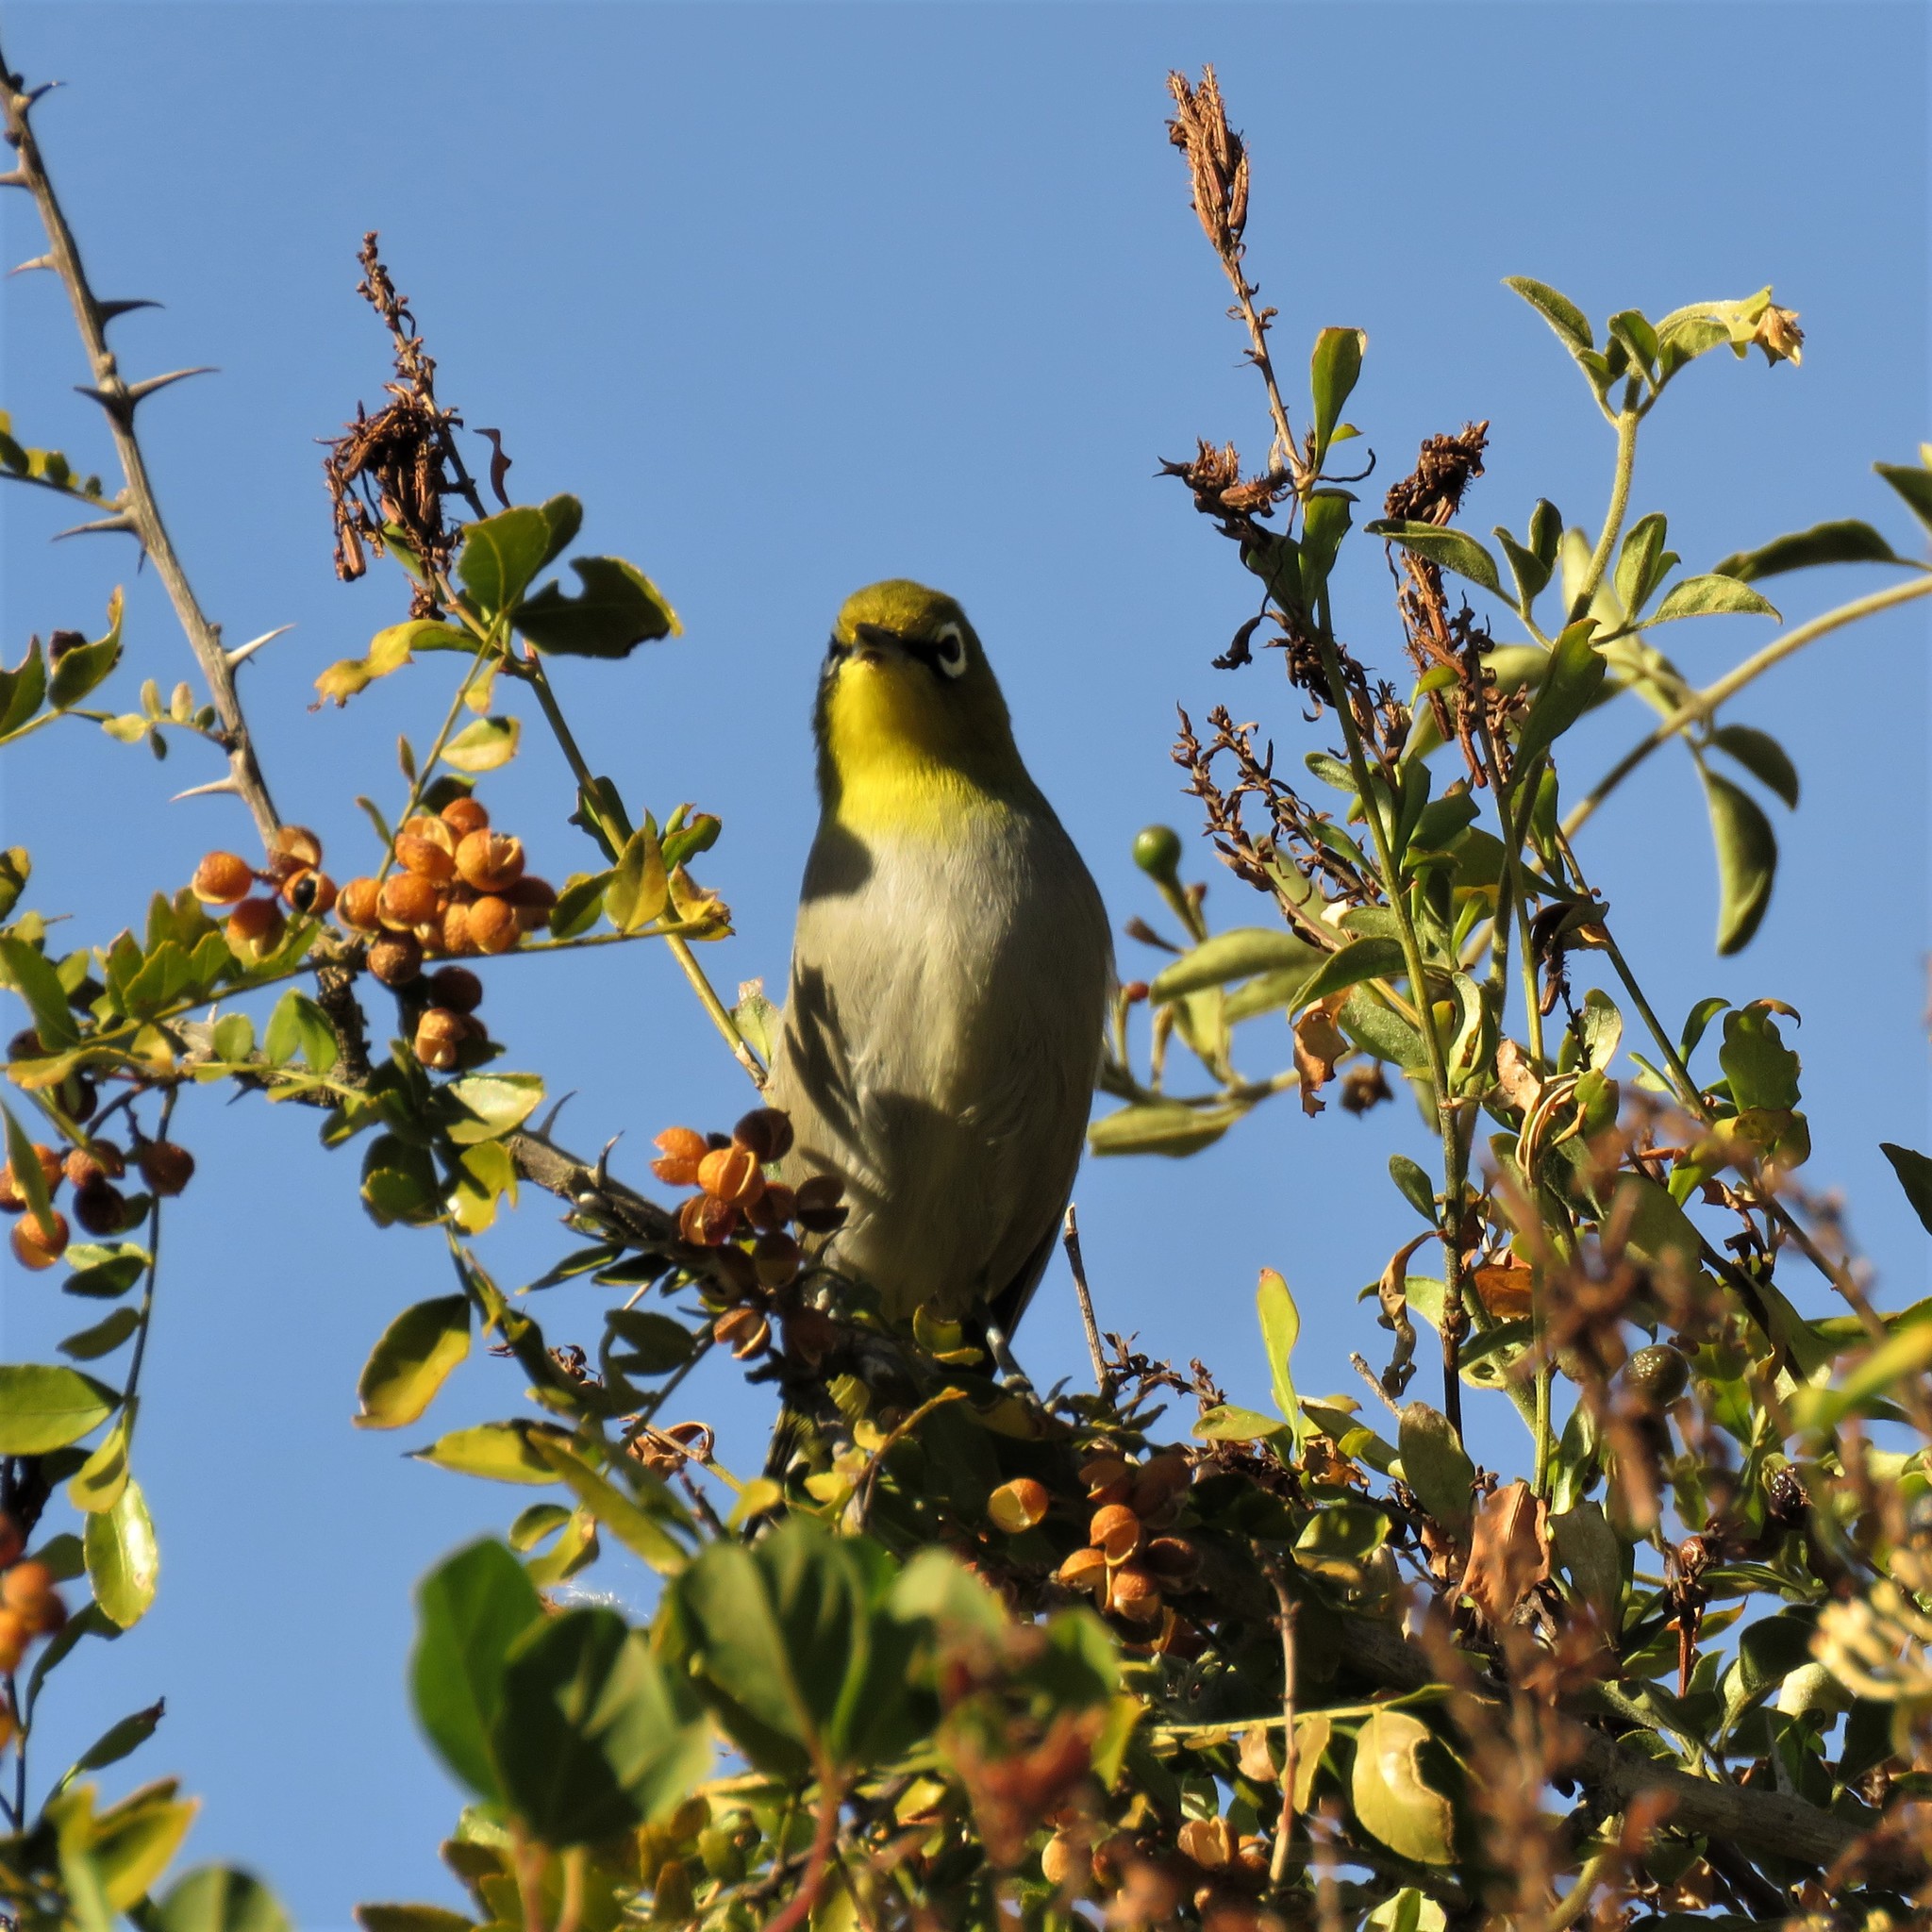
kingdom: Animalia
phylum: Chordata
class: Aves
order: Passeriformes
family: Zosteropidae
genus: Zosterops
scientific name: Zosterops virens
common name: Cape white-eye
